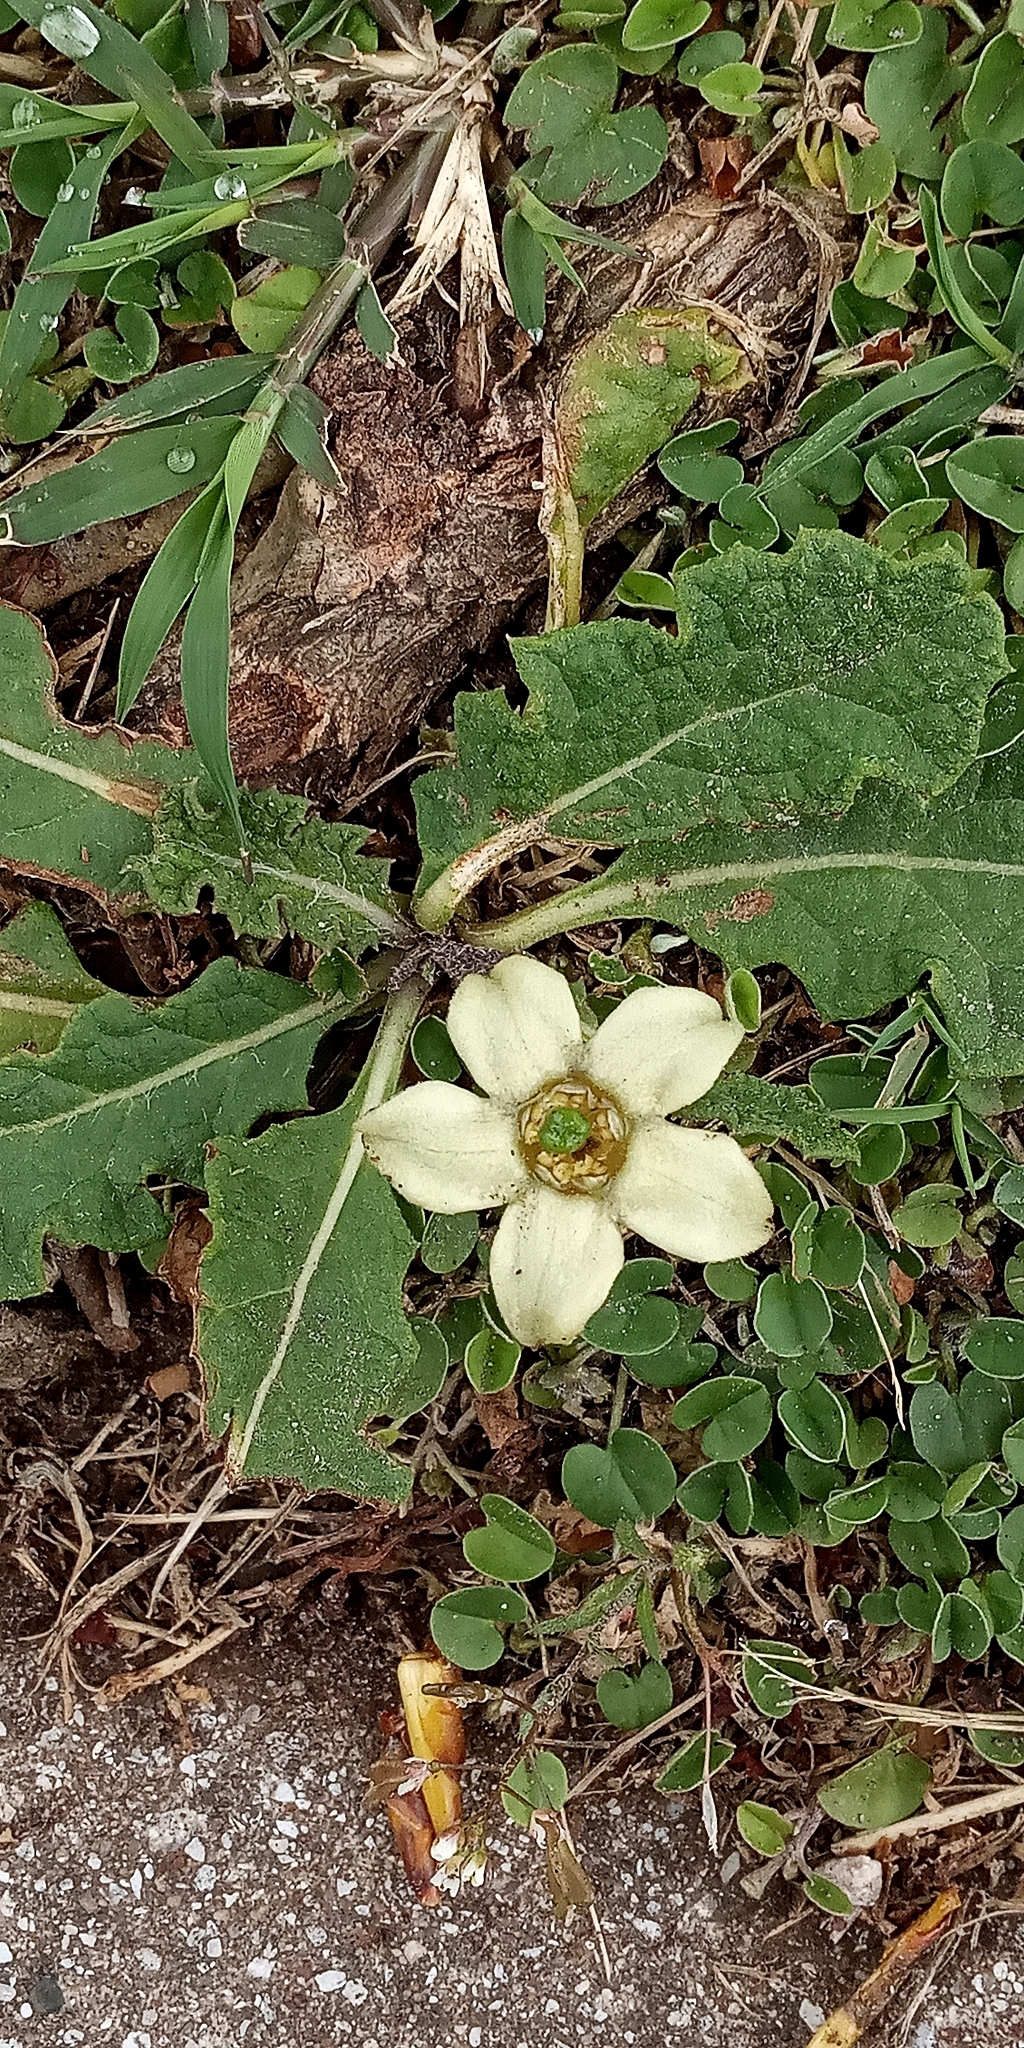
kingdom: Plantae
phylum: Tracheophyta
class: Magnoliopsida
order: Solanales
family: Solanaceae
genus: Jaborosa
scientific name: Jaborosa runcinata
